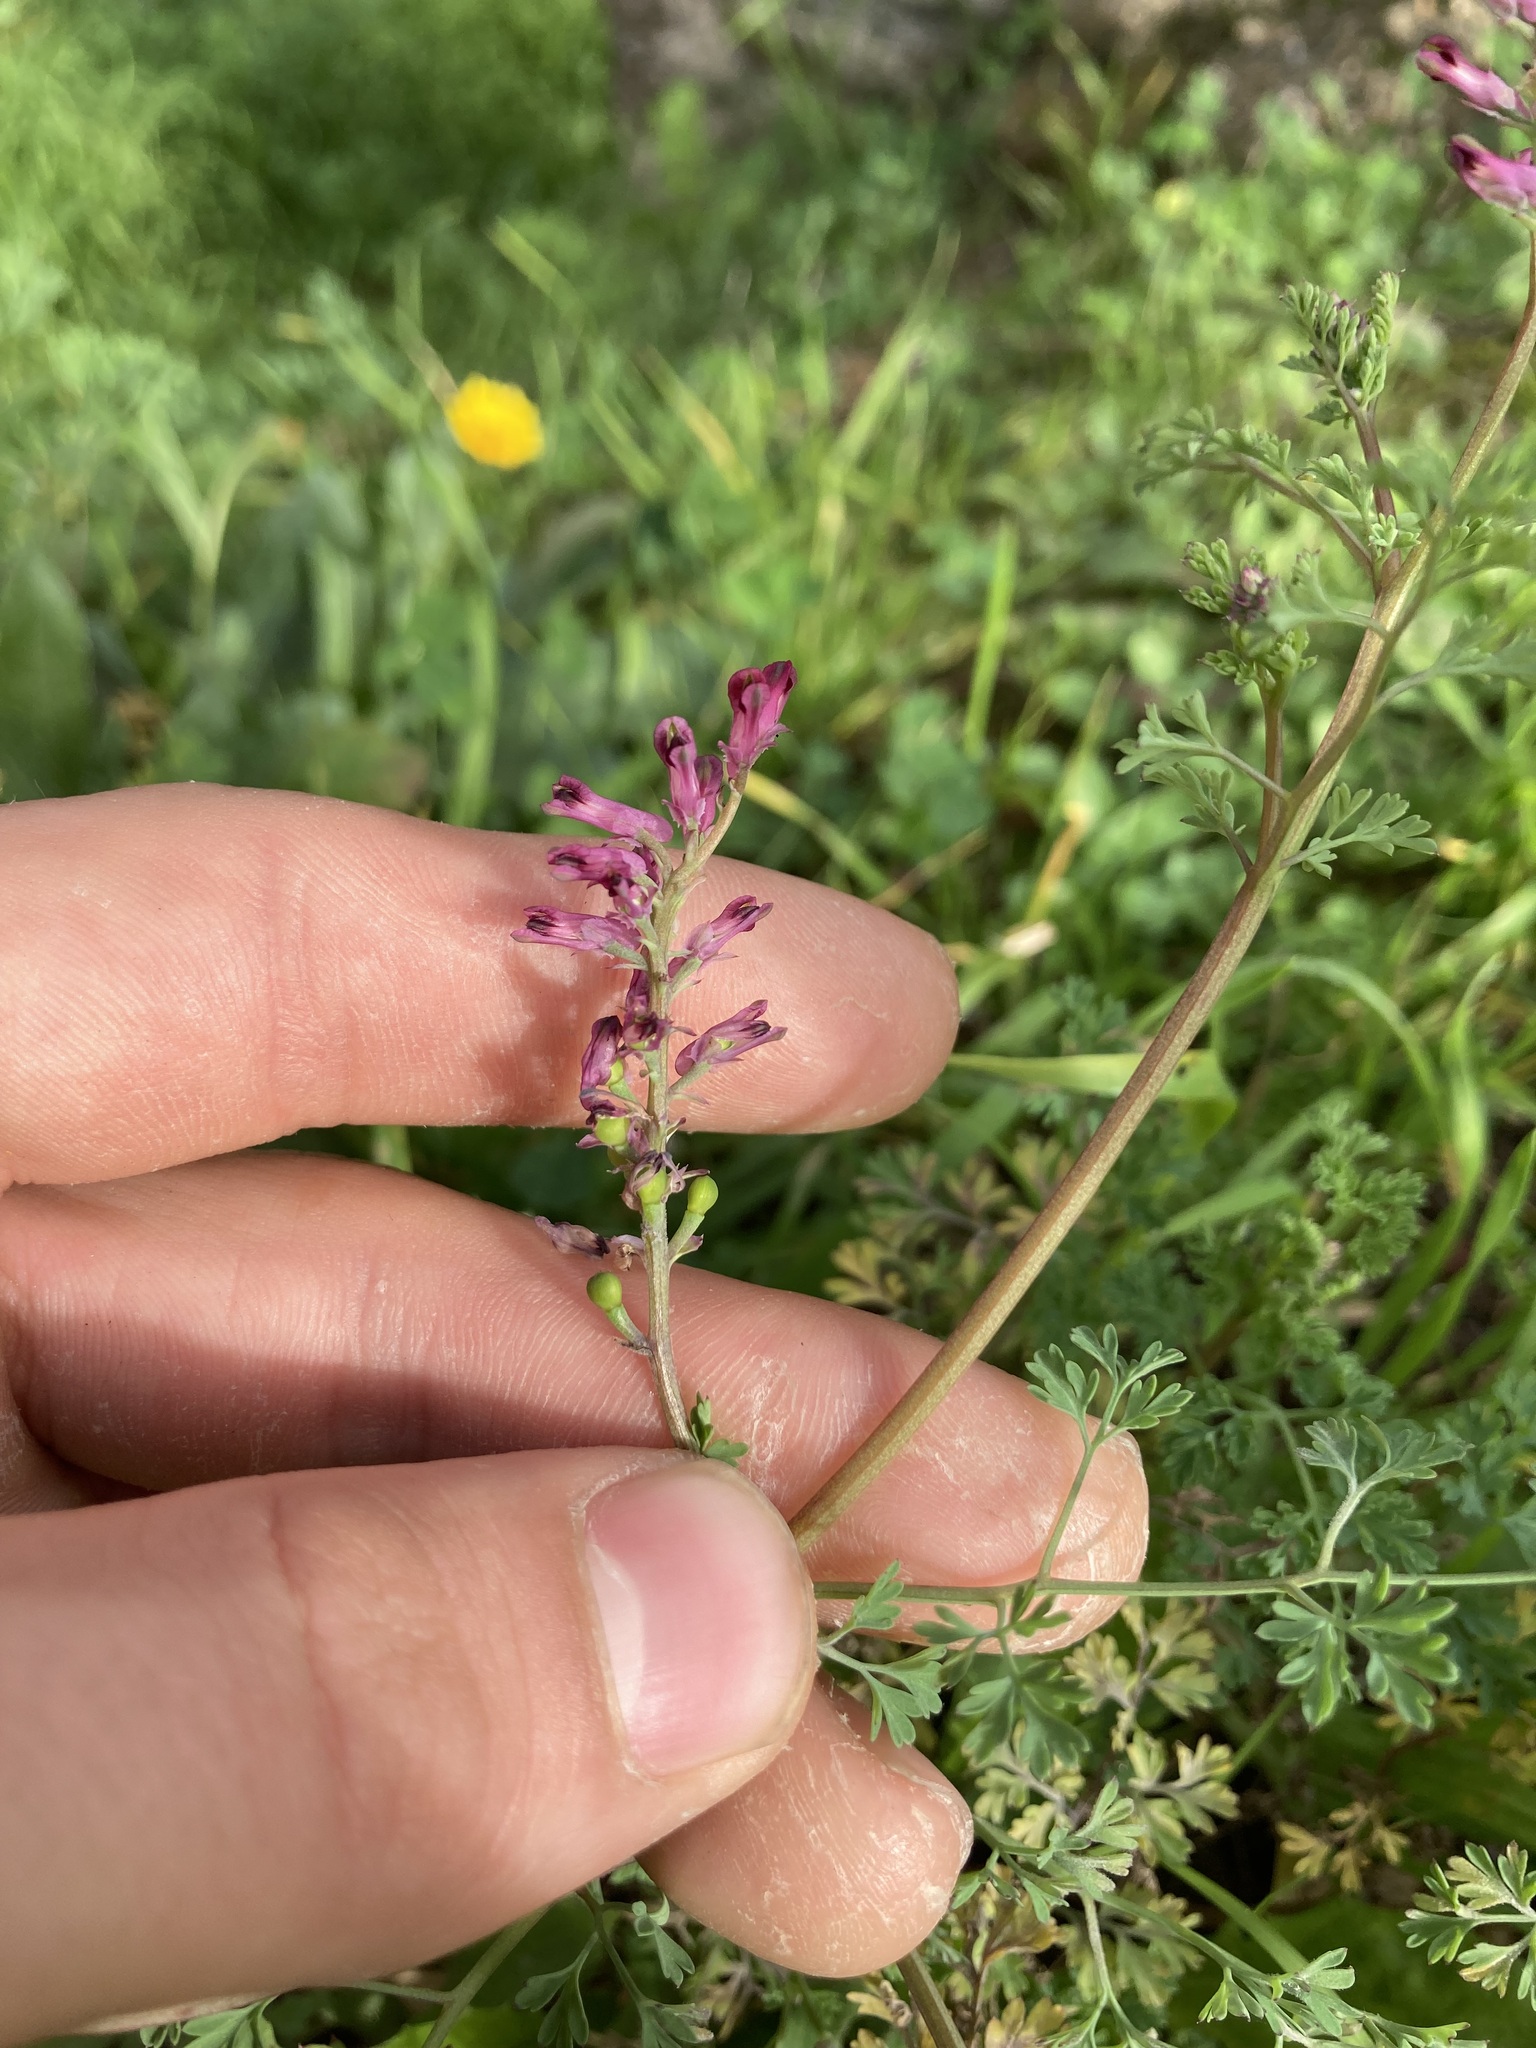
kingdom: Plantae
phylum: Tracheophyta
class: Magnoliopsida
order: Ranunculales
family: Papaveraceae
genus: Fumaria
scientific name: Fumaria officinalis
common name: Common fumitory
